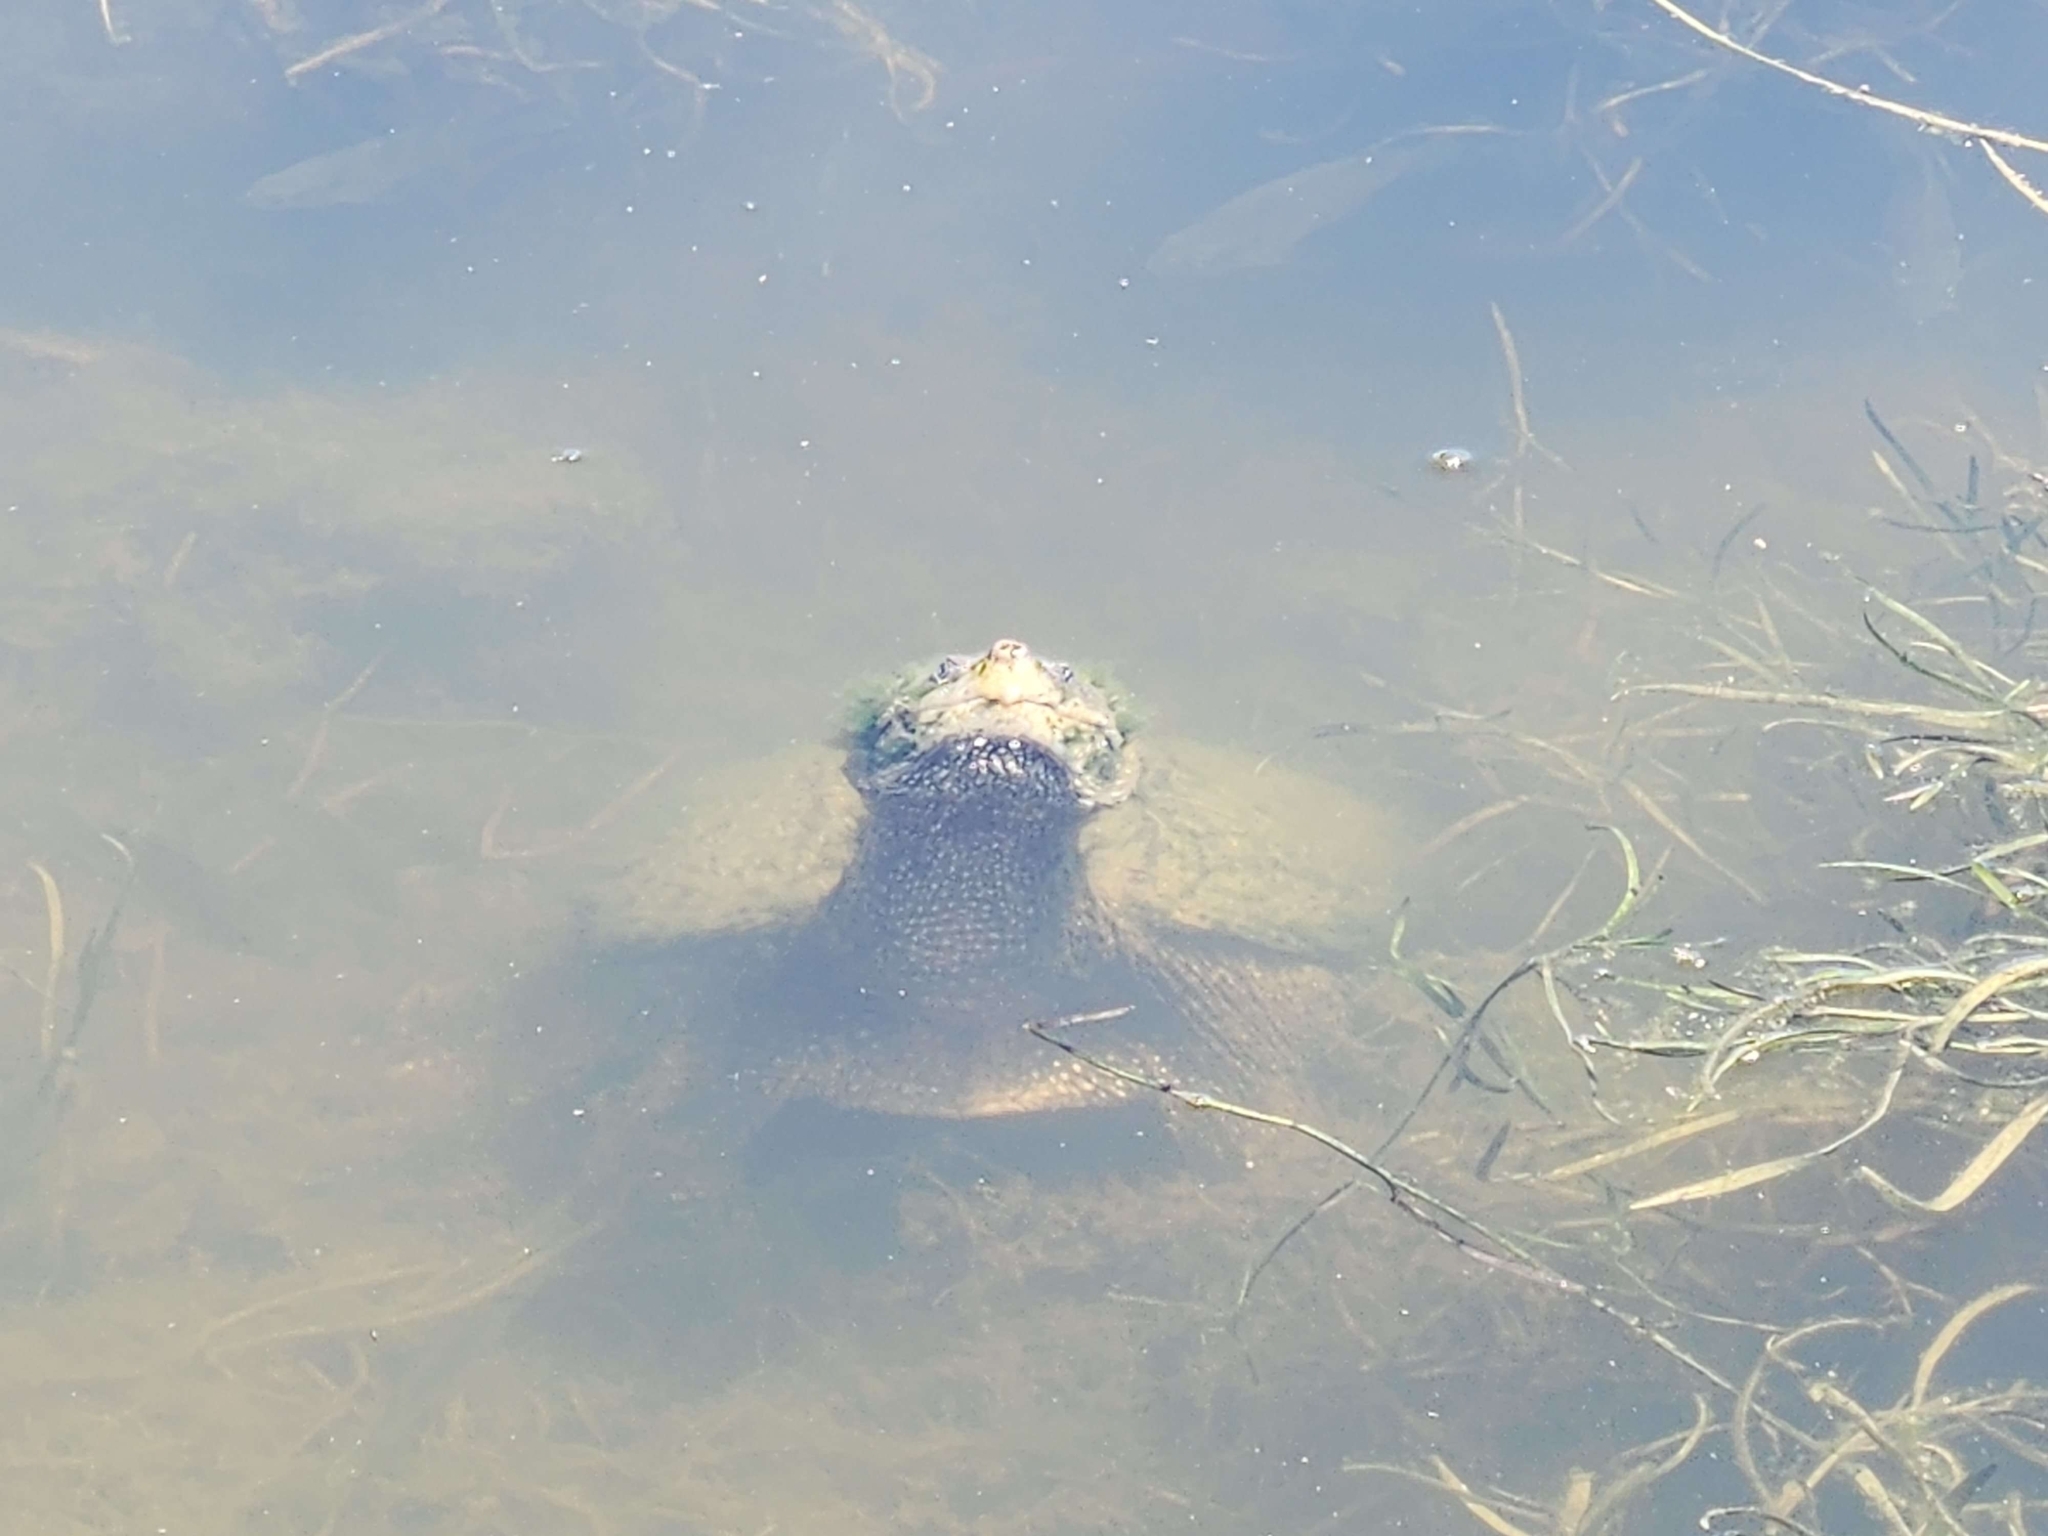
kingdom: Animalia
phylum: Chordata
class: Testudines
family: Chelydridae
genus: Chelydra
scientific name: Chelydra serpentina
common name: Common snapping turtle
